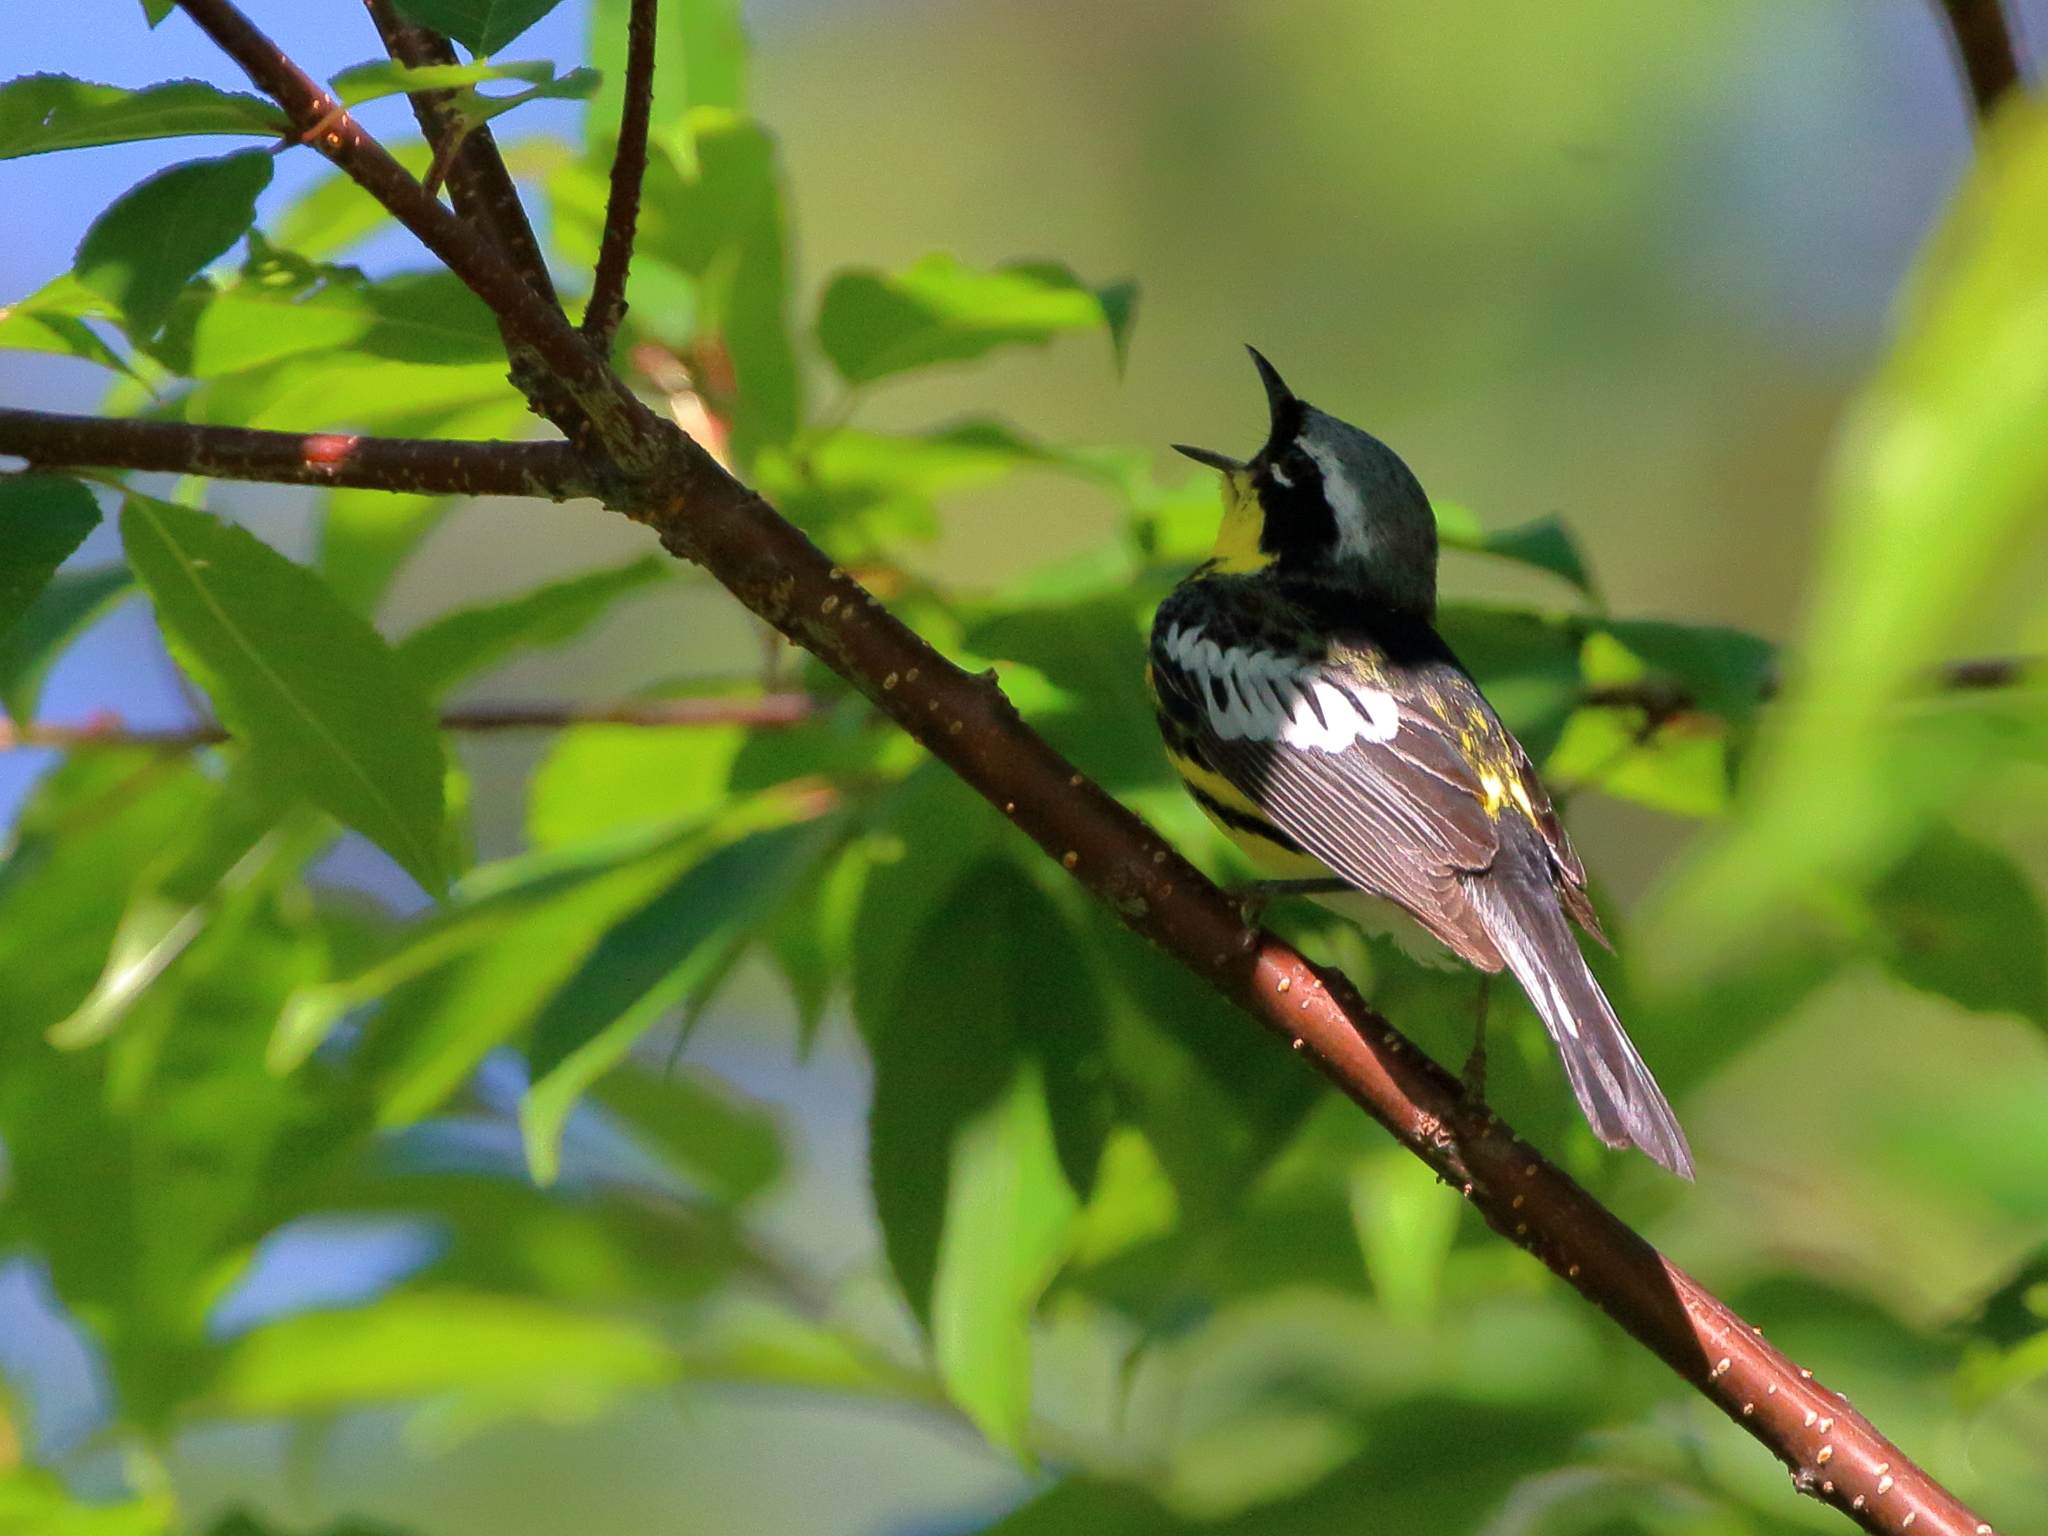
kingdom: Animalia
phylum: Chordata
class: Aves
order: Passeriformes
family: Parulidae
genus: Setophaga
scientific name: Setophaga magnolia
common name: Magnolia warbler
